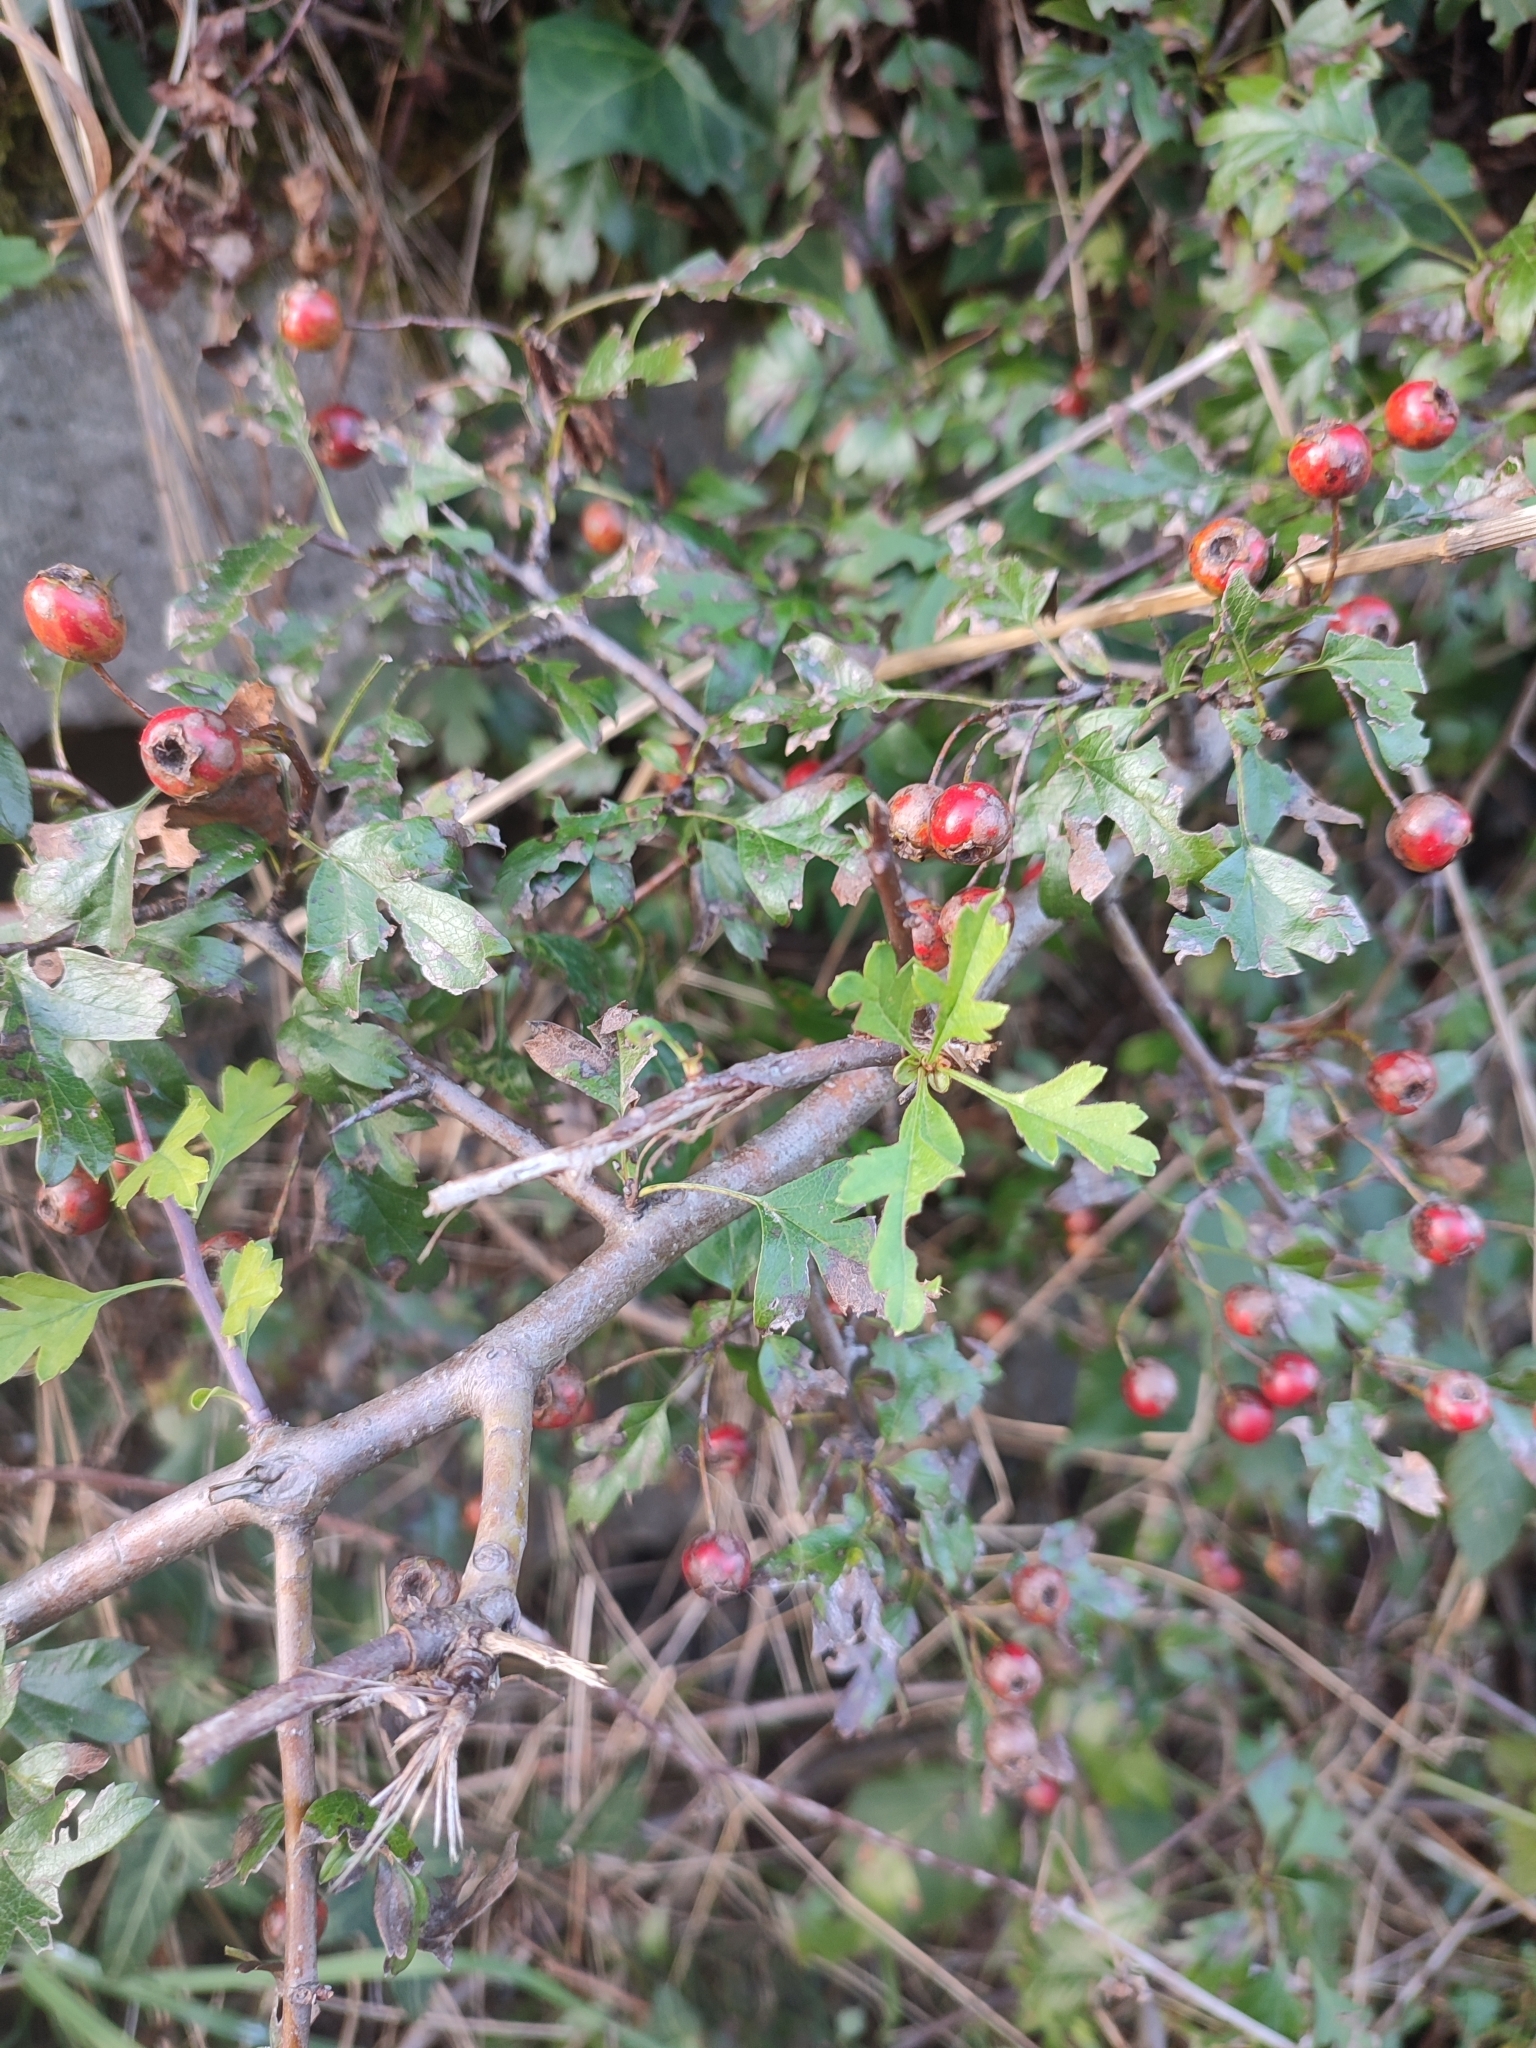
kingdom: Plantae
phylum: Tracheophyta
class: Magnoliopsida
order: Rosales
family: Rosaceae
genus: Crataegus
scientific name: Crataegus monogyna
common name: Hawthorn
